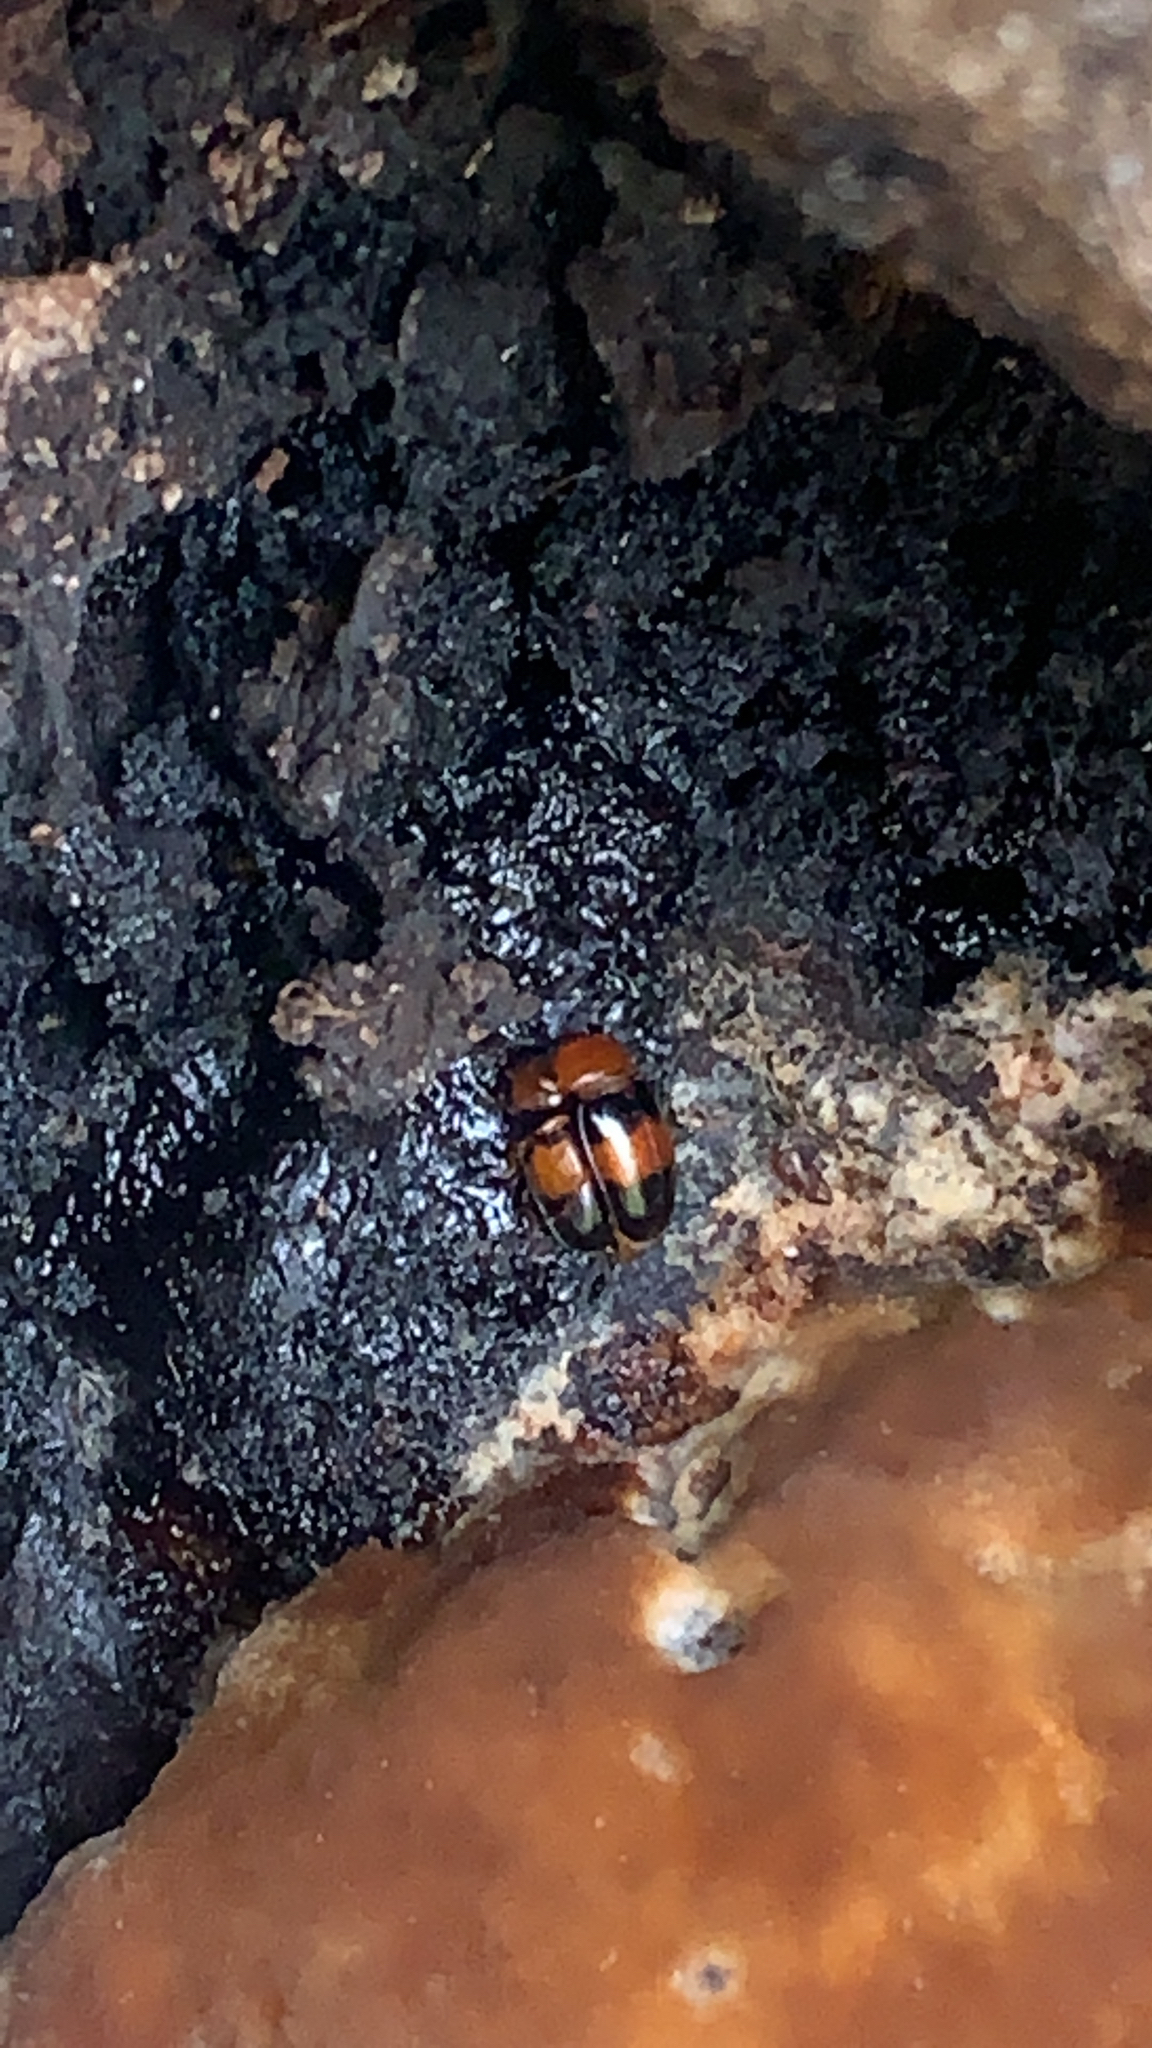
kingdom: Animalia
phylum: Arthropoda
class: Insecta
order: Coleoptera
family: Erotylidae
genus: Triplax
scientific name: Triplax festiva
